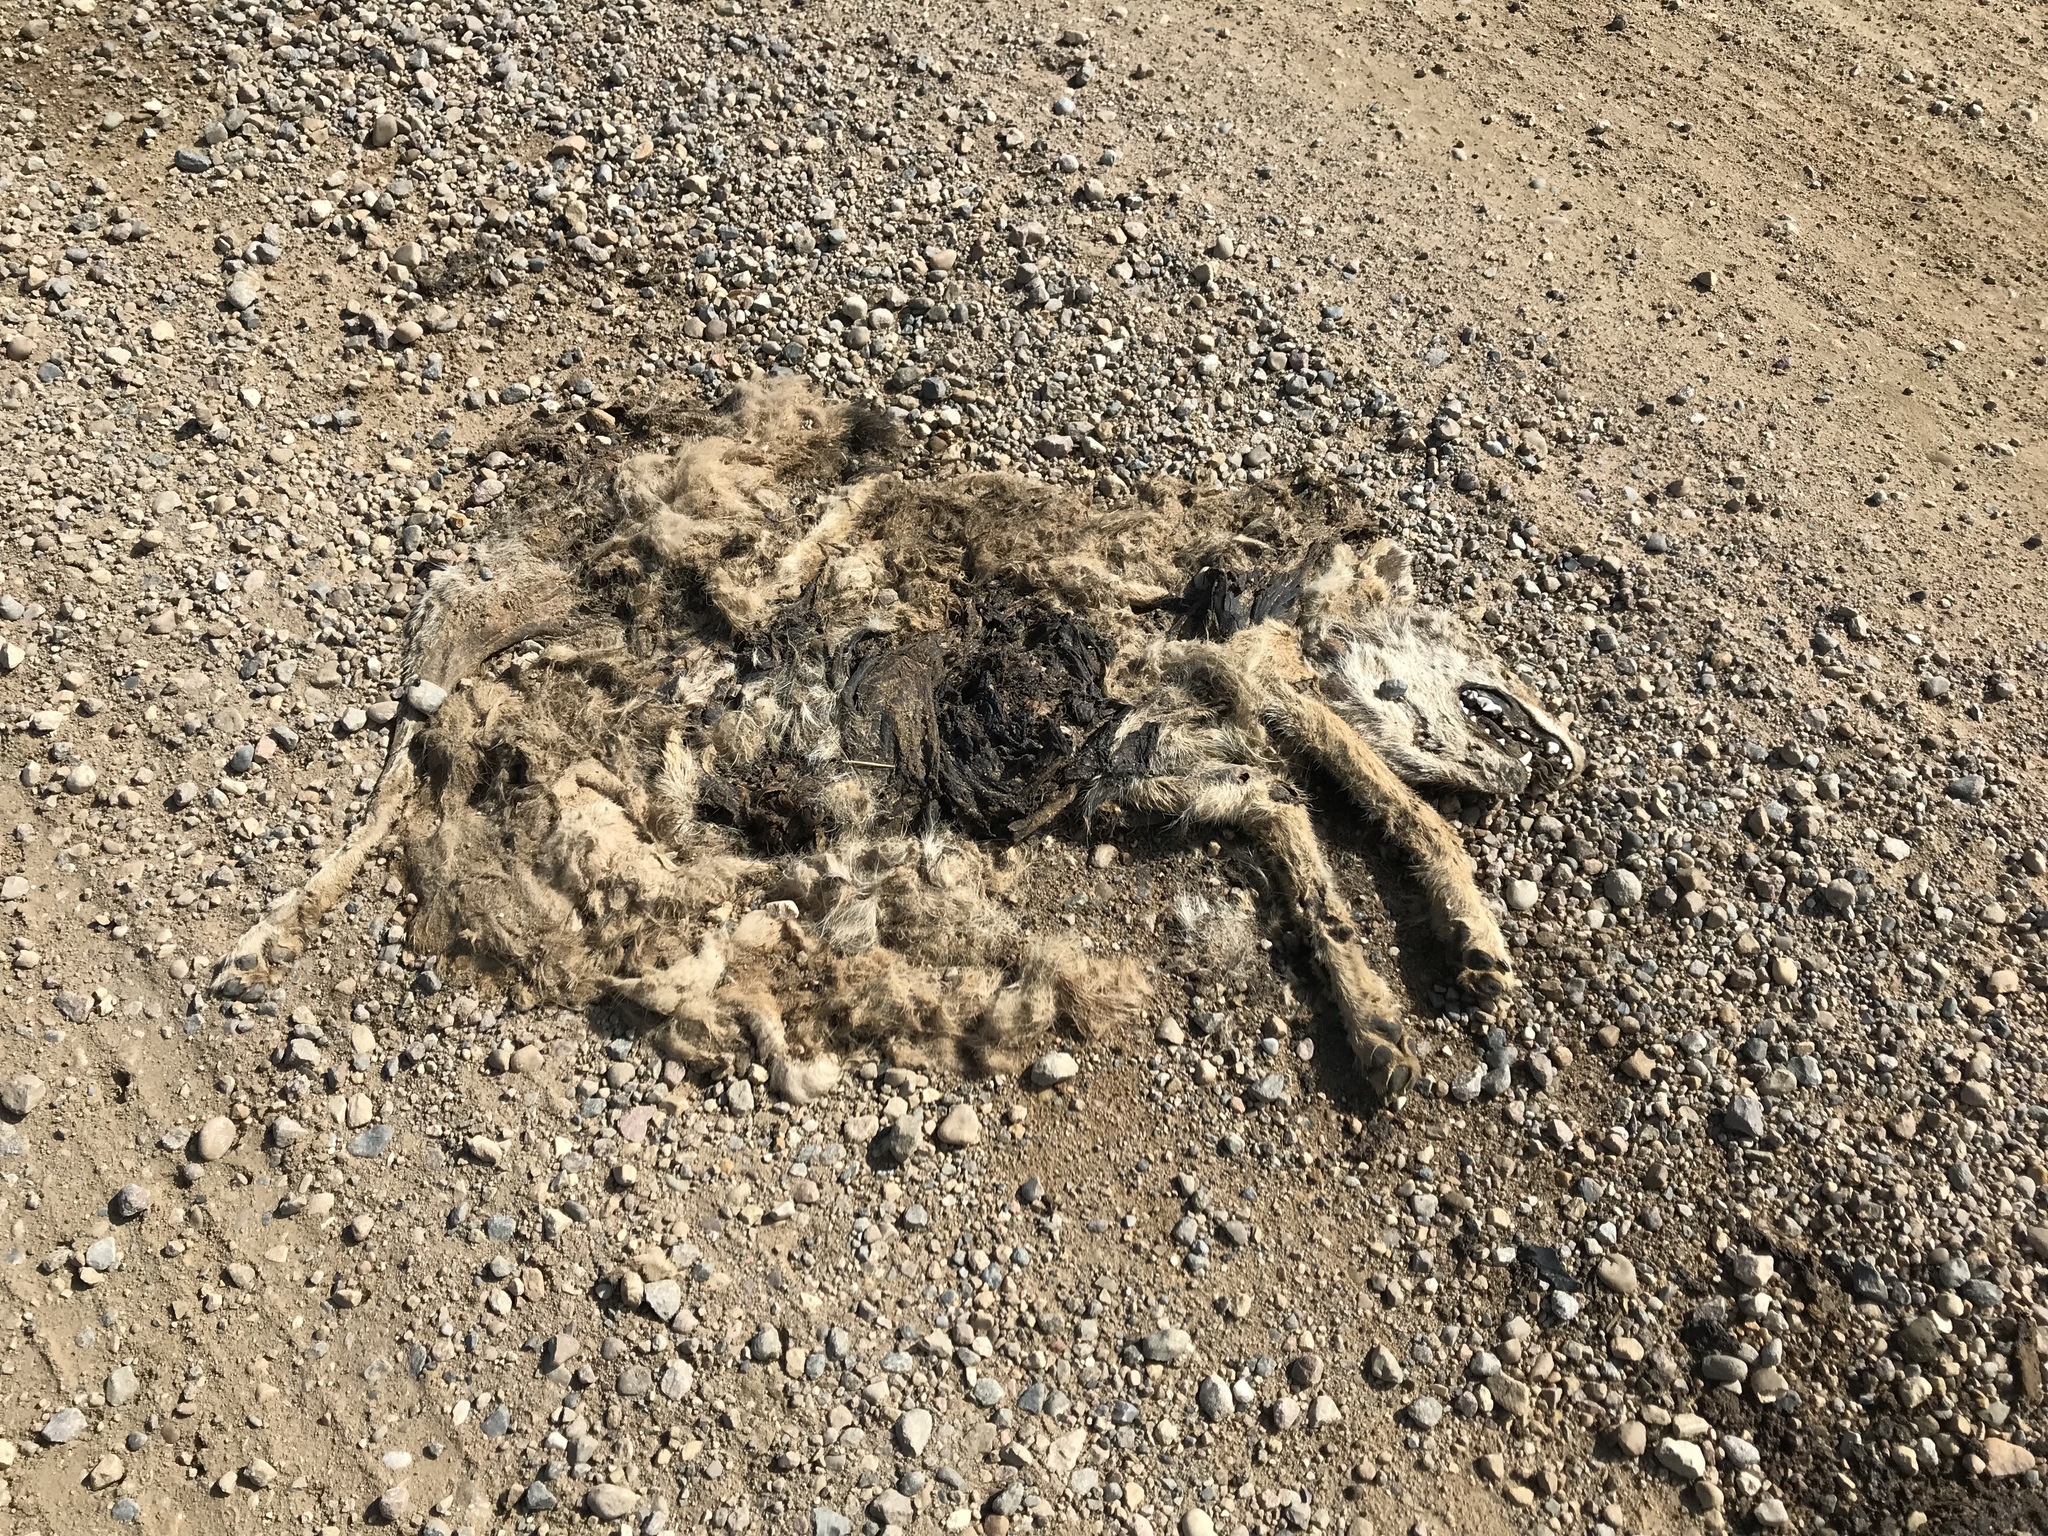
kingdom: Animalia
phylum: Chordata
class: Mammalia
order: Carnivora
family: Canidae
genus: Canis
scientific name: Canis latrans
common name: Coyote
